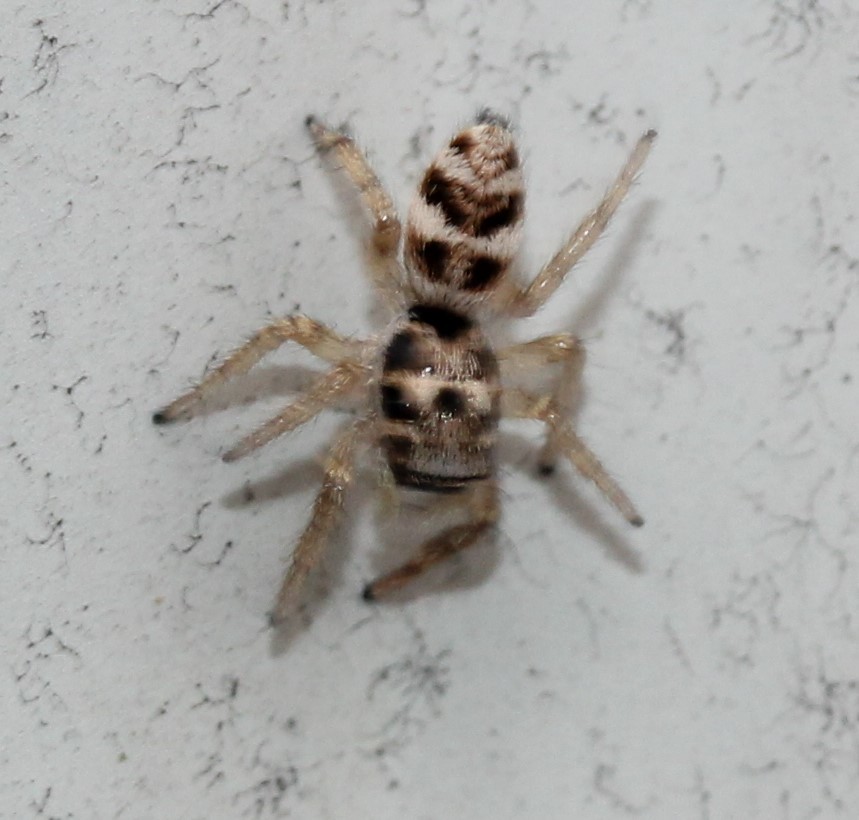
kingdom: Animalia
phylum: Arthropoda
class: Arachnida
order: Araneae
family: Salticidae
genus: Salticus
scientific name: Salticus scenicus
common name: Zebra jumper
